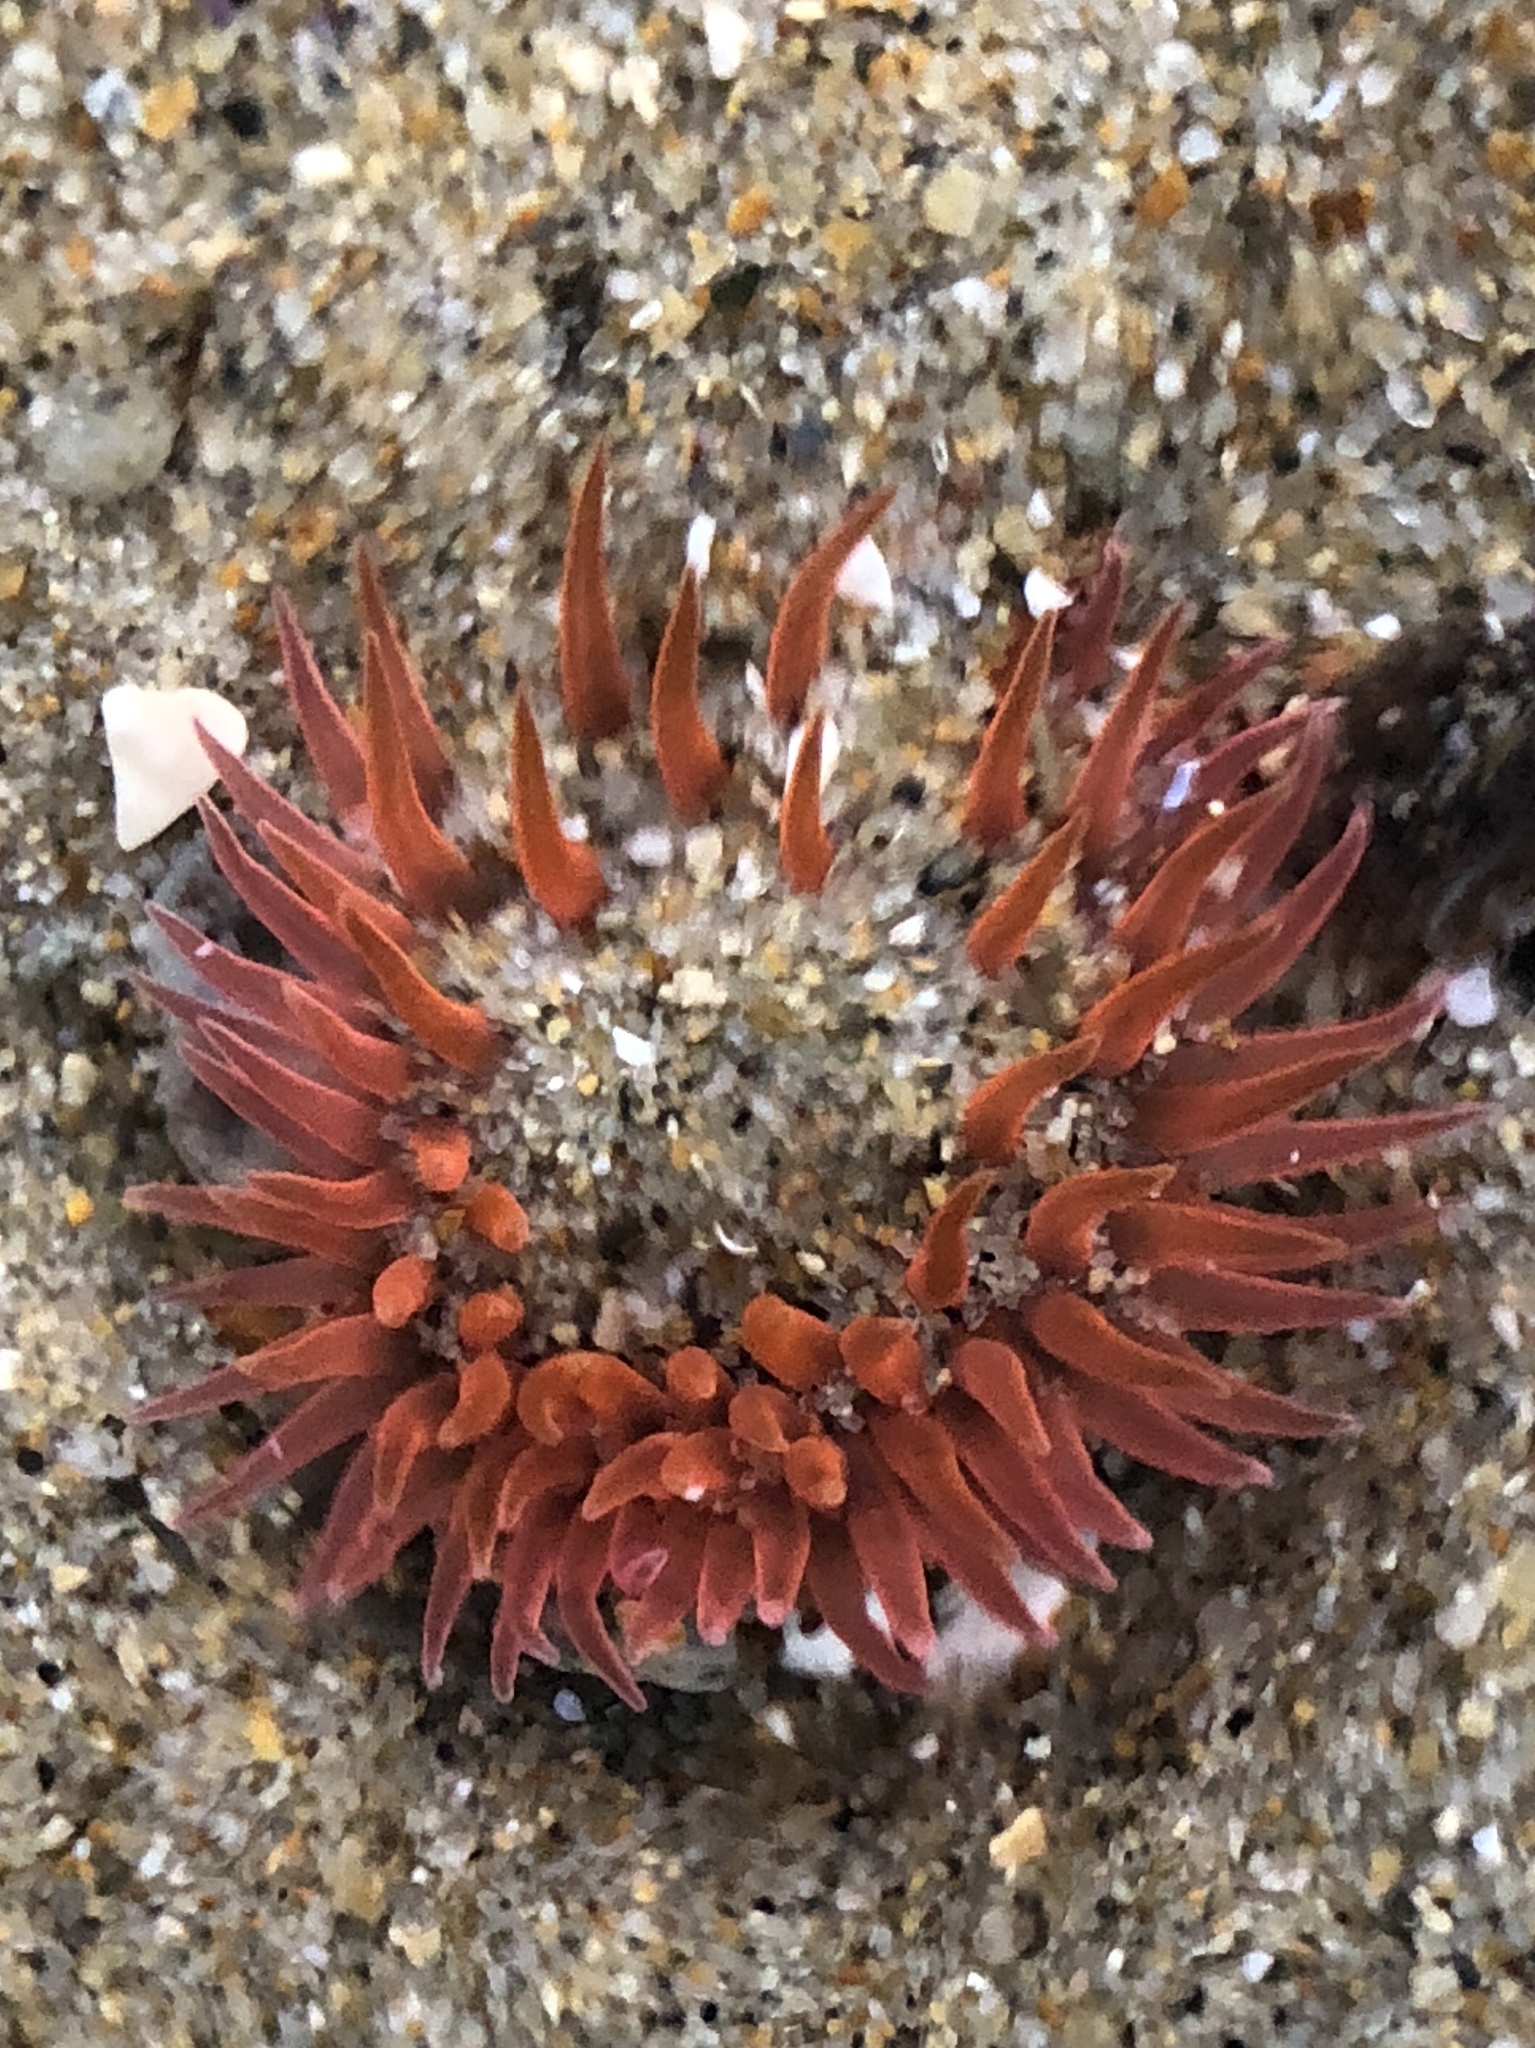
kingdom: Animalia
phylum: Cnidaria
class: Anthozoa
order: Actiniaria
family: Actiniidae
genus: Anthopleura
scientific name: Anthopleura artemisia
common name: Buried sea anemone
